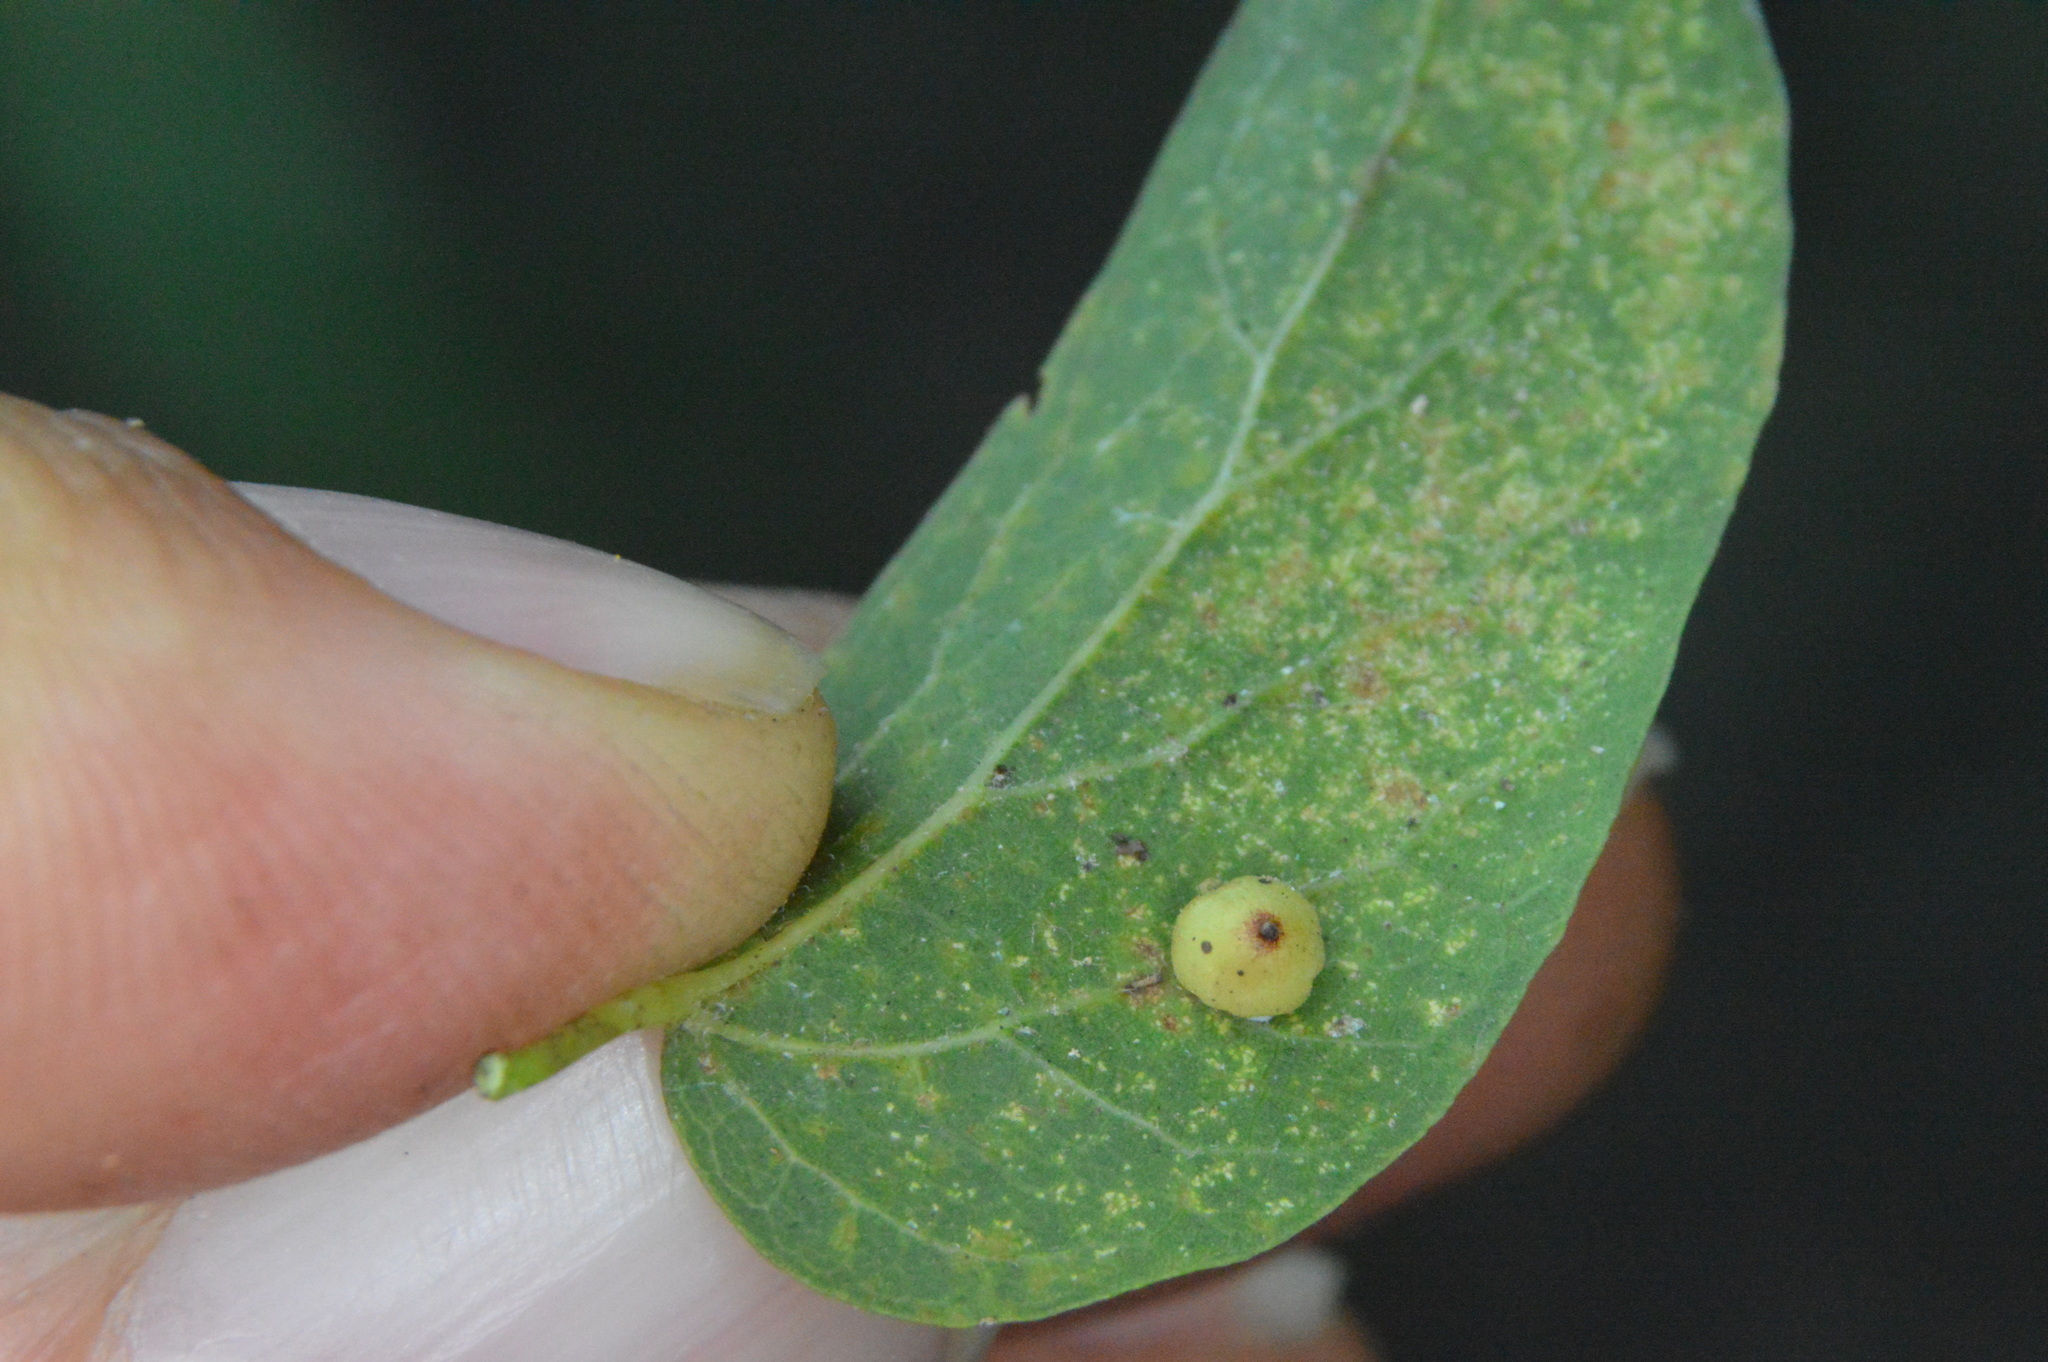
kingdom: Animalia
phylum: Arthropoda
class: Insecta
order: Diptera
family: Cecidomyiidae
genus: Celticecis
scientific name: Celticecis globosa
